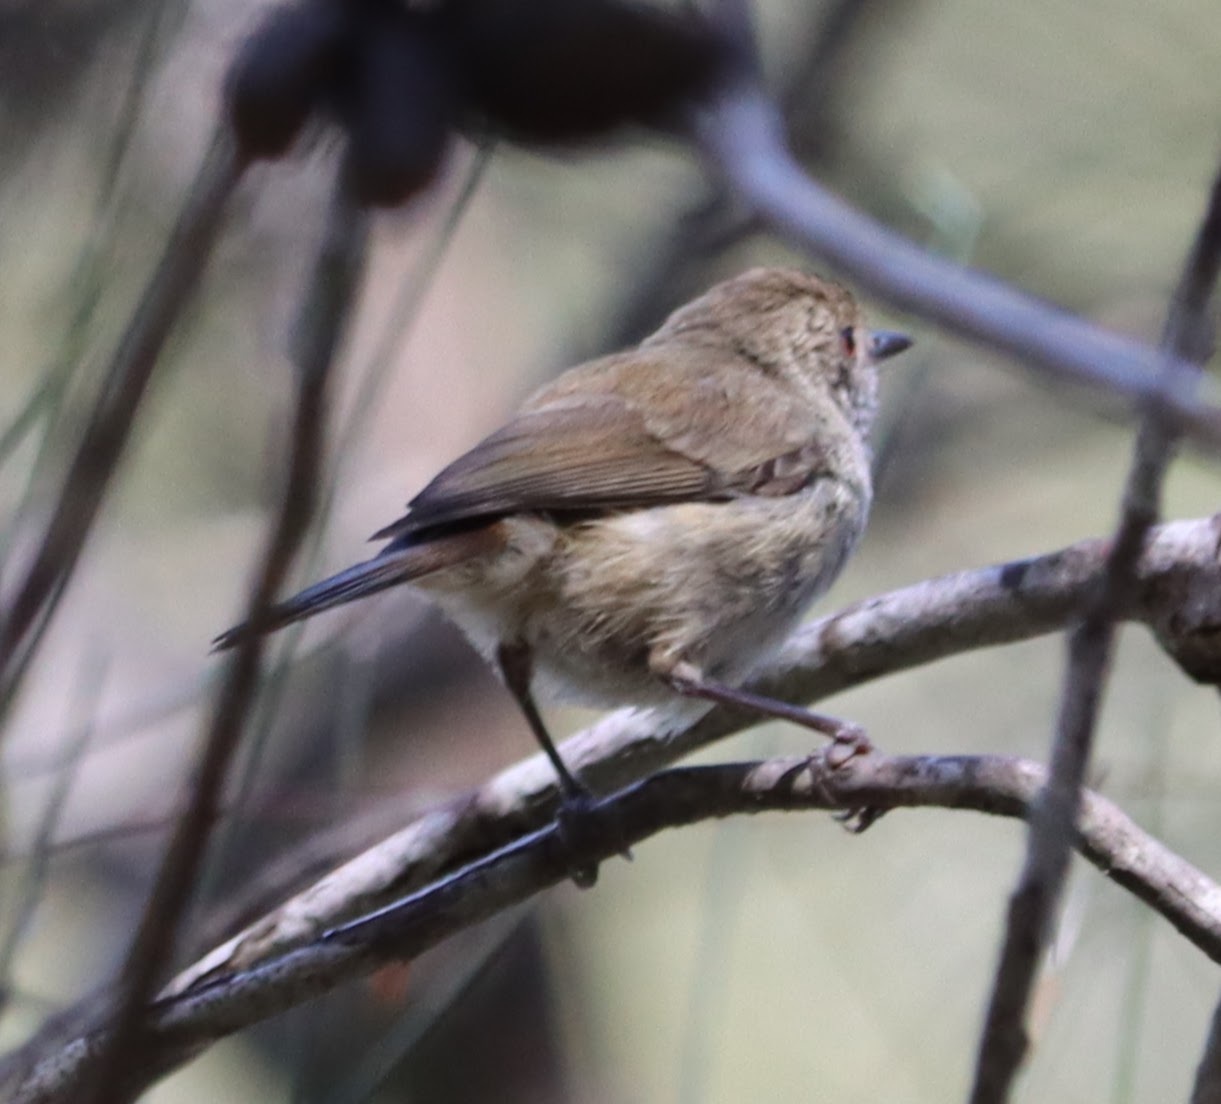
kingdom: Animalia
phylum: Chordata
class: Aves
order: Passeriformes
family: Acanthizidae
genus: Acanthiza
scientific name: Acanthiza pusilla
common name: Brown thornbill
